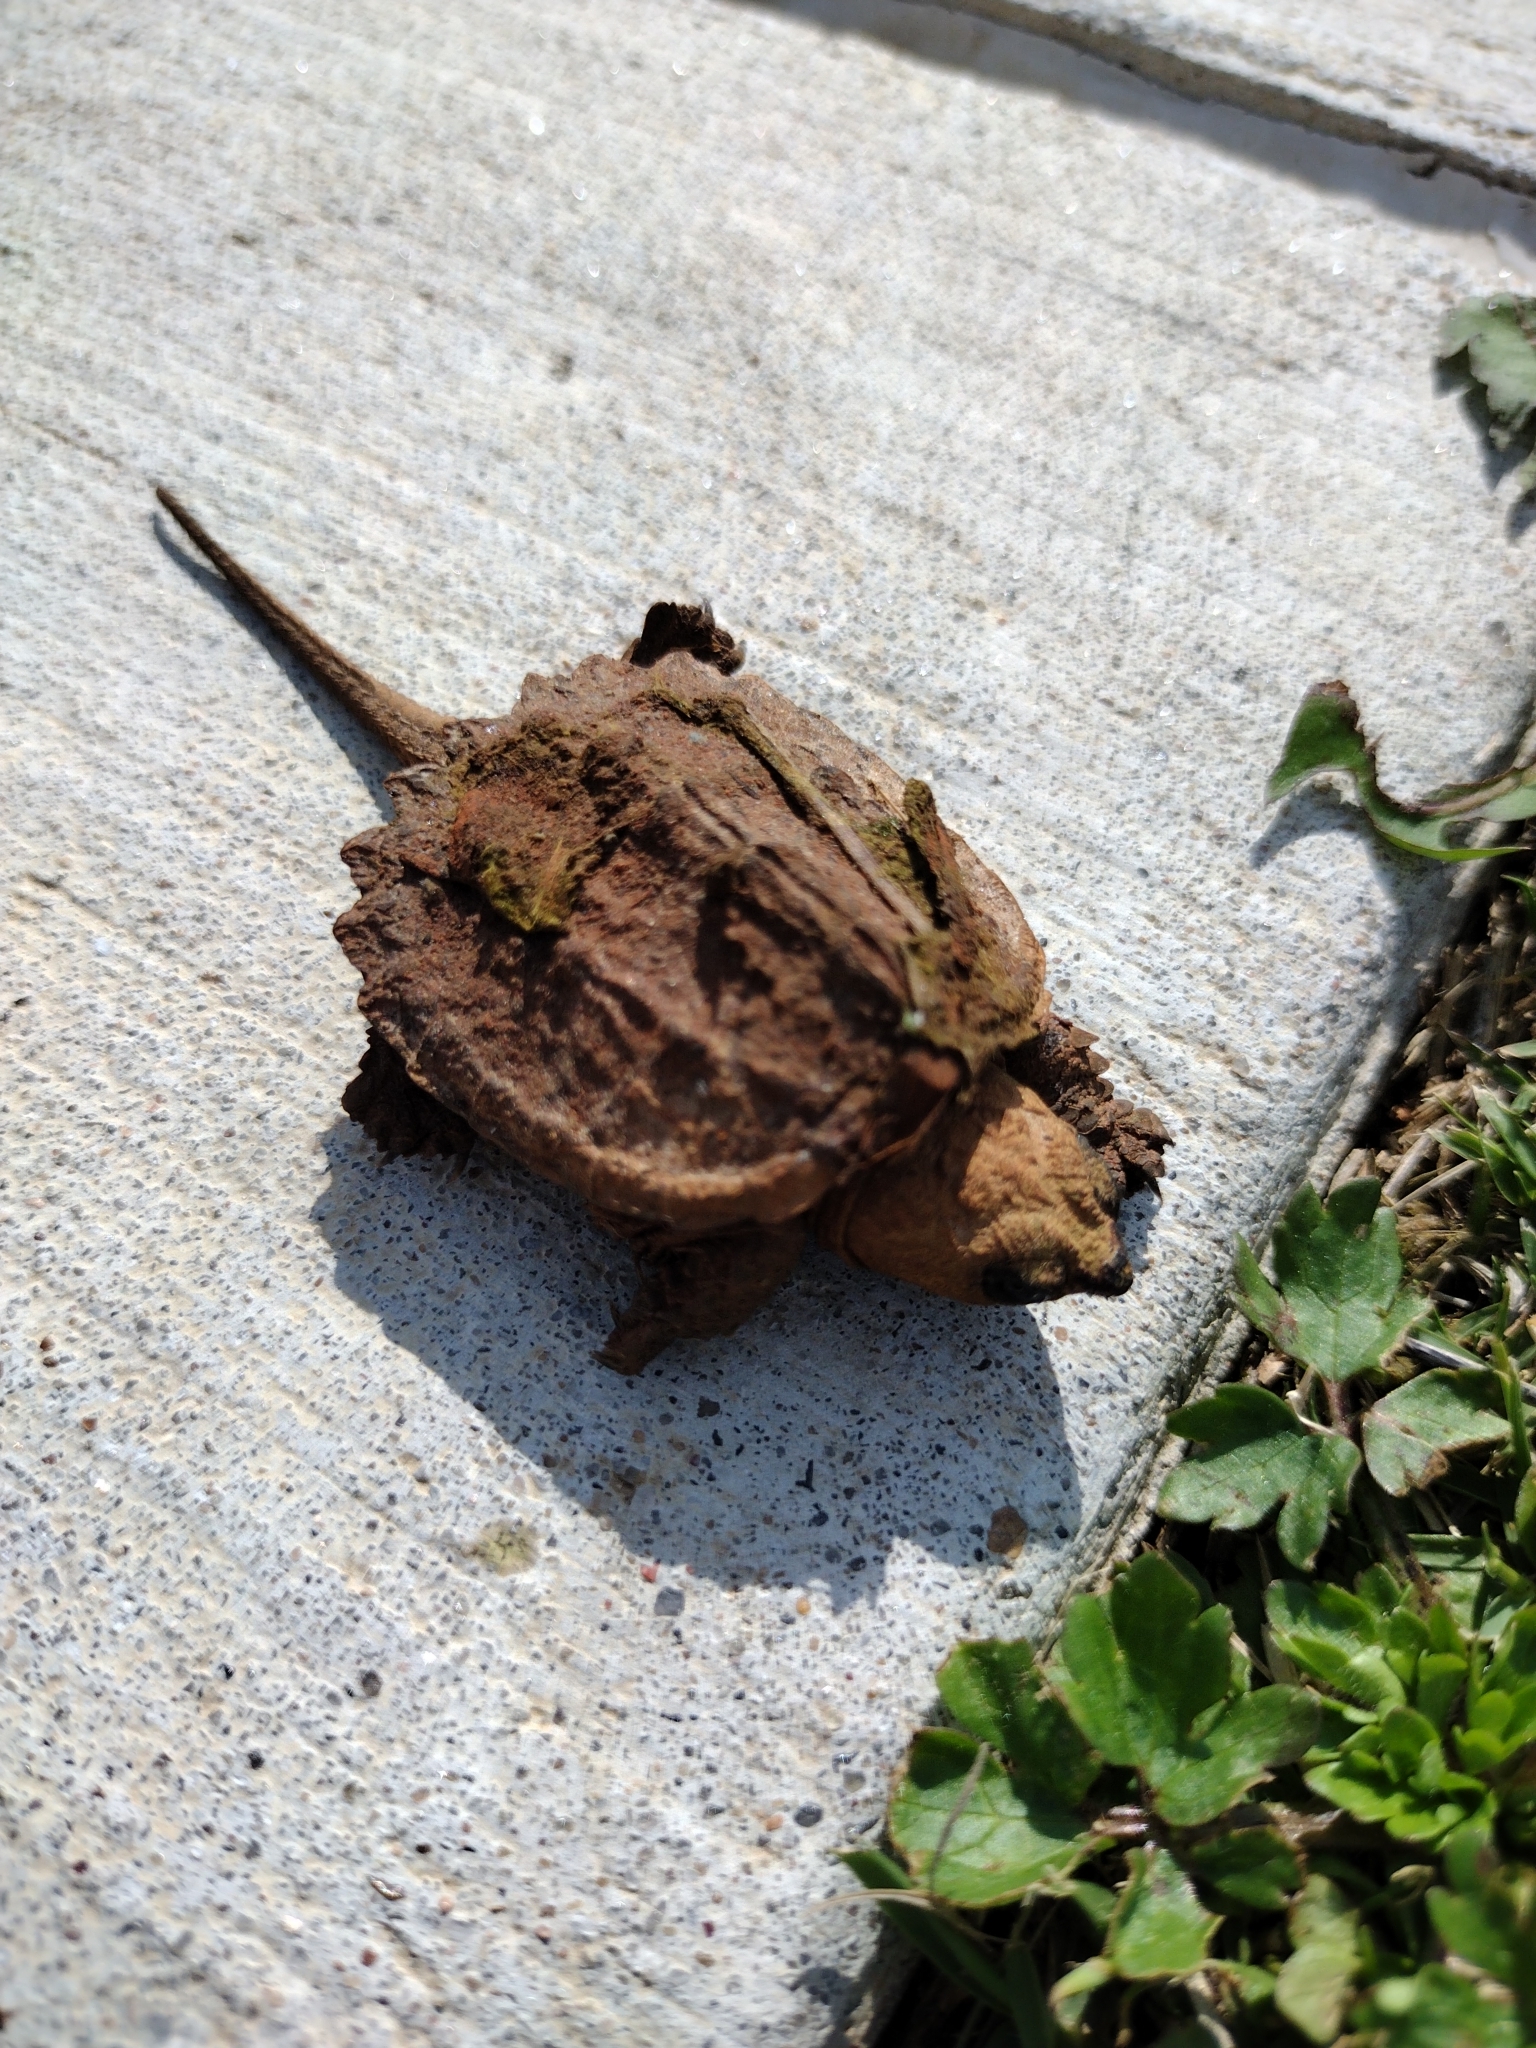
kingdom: Animalia
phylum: Chordata
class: Testudines
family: Chelydridae
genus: Chelydra
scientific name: Chelydra serpentina
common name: Common snapping turtle
